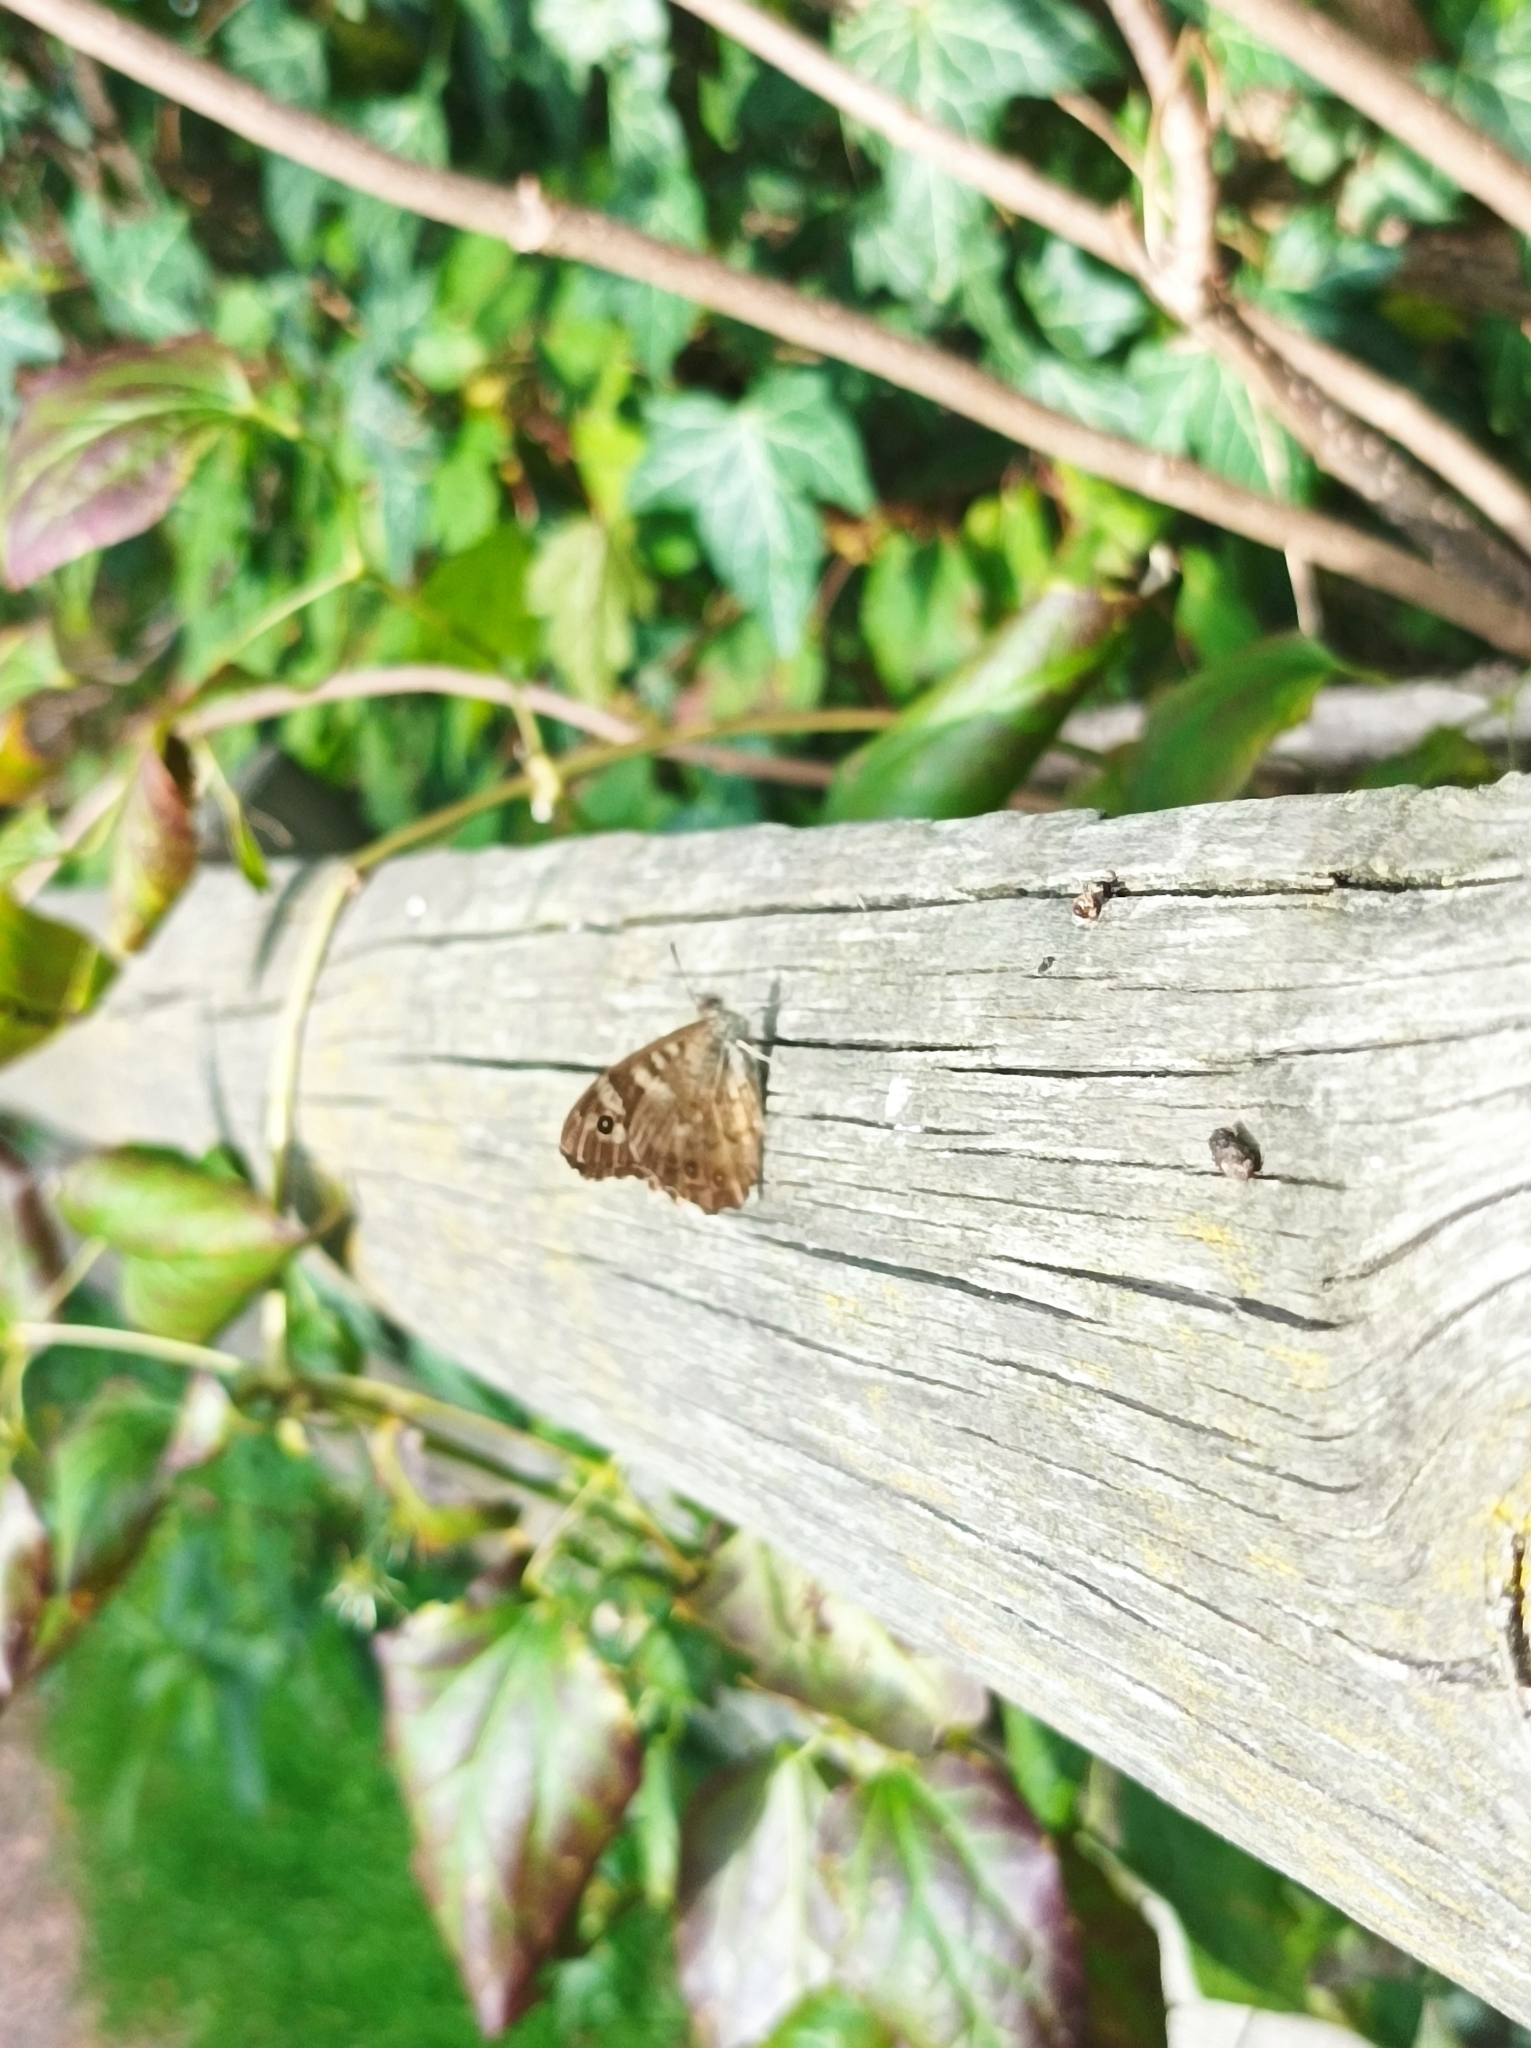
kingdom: Animalia
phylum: Arthropoda
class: Insecta
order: Lepidoptera
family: Nymphalidae
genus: Pararge
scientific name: Pararge aegeria
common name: Speckled wood
